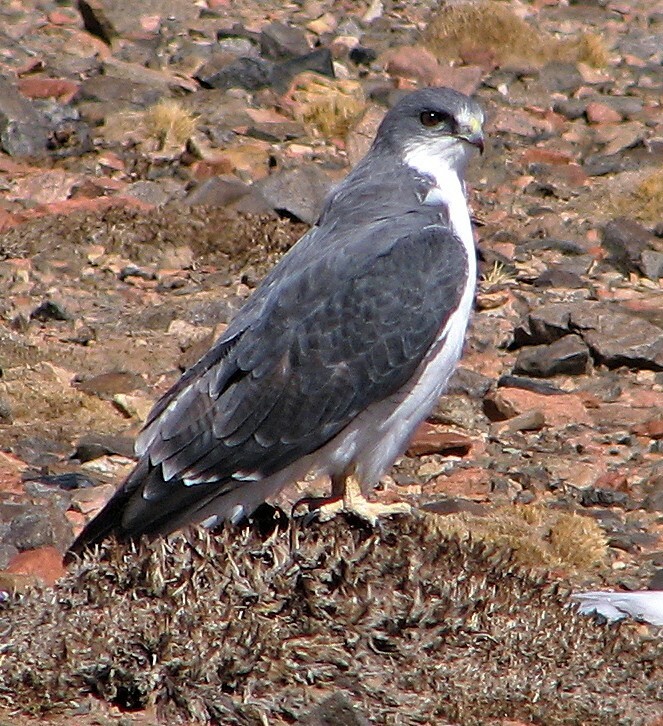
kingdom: Animalia
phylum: Chordata
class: Aves
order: Accipitriformes
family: Accipitridae
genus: Buteo
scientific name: Buteo polyosoma
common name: Variable hawk
